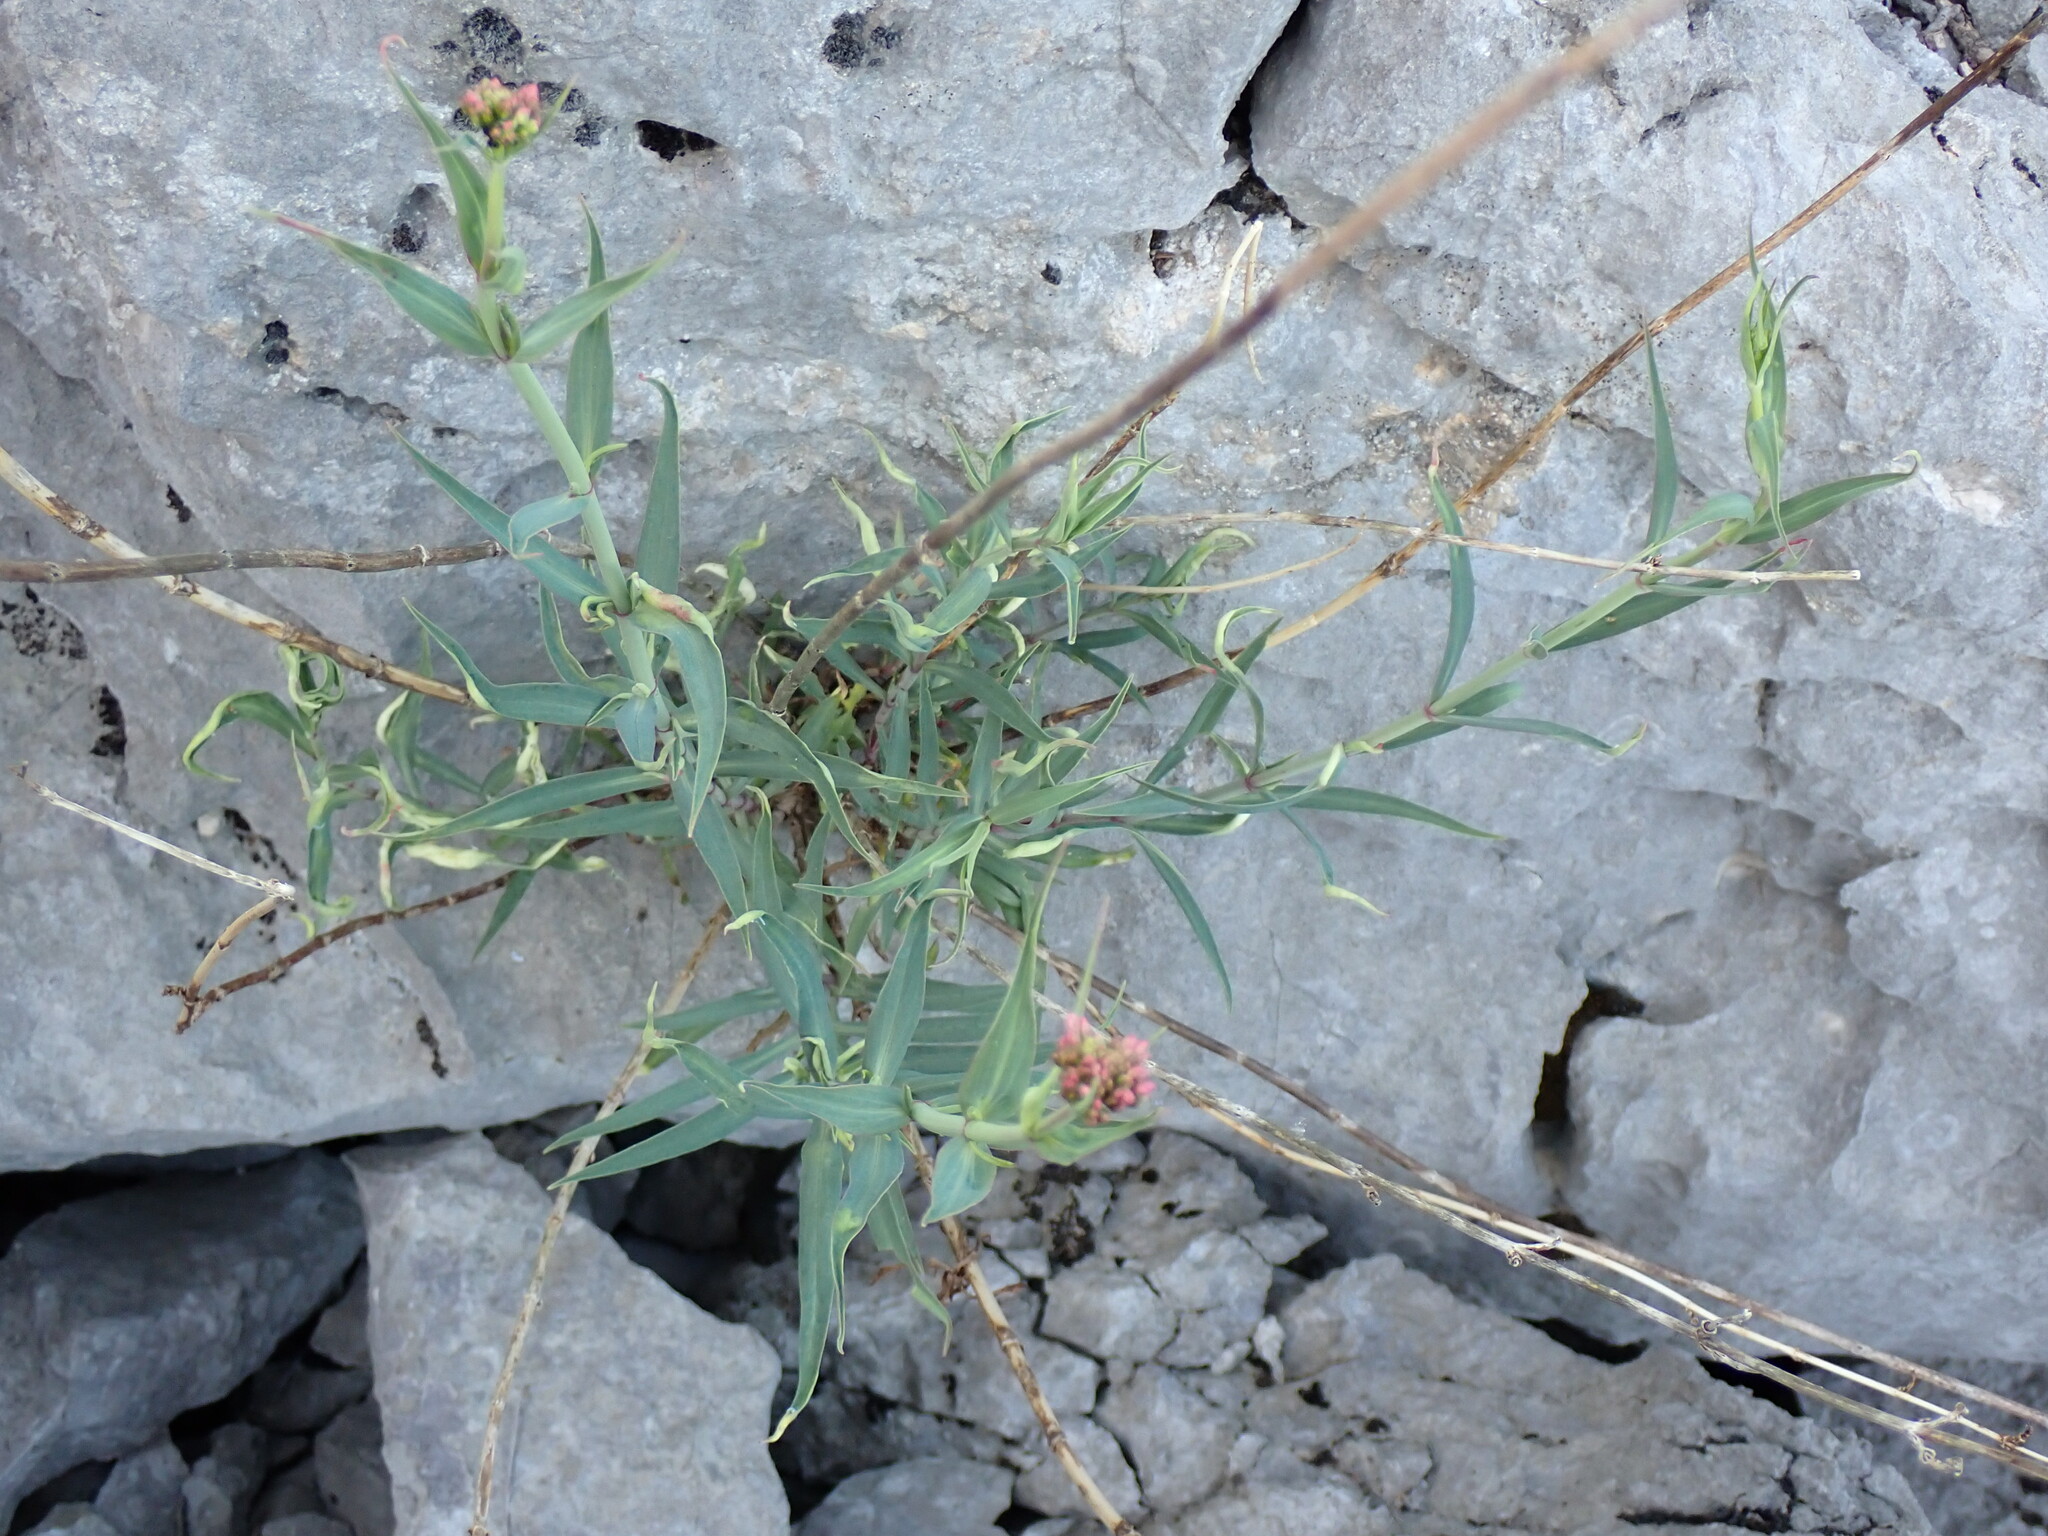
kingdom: Plantae
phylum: Tracheophyta
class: Magnoliopsida
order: Dipsacales
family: Caprifoliaceae
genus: Centranthus
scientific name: Centranthus lecoqii
